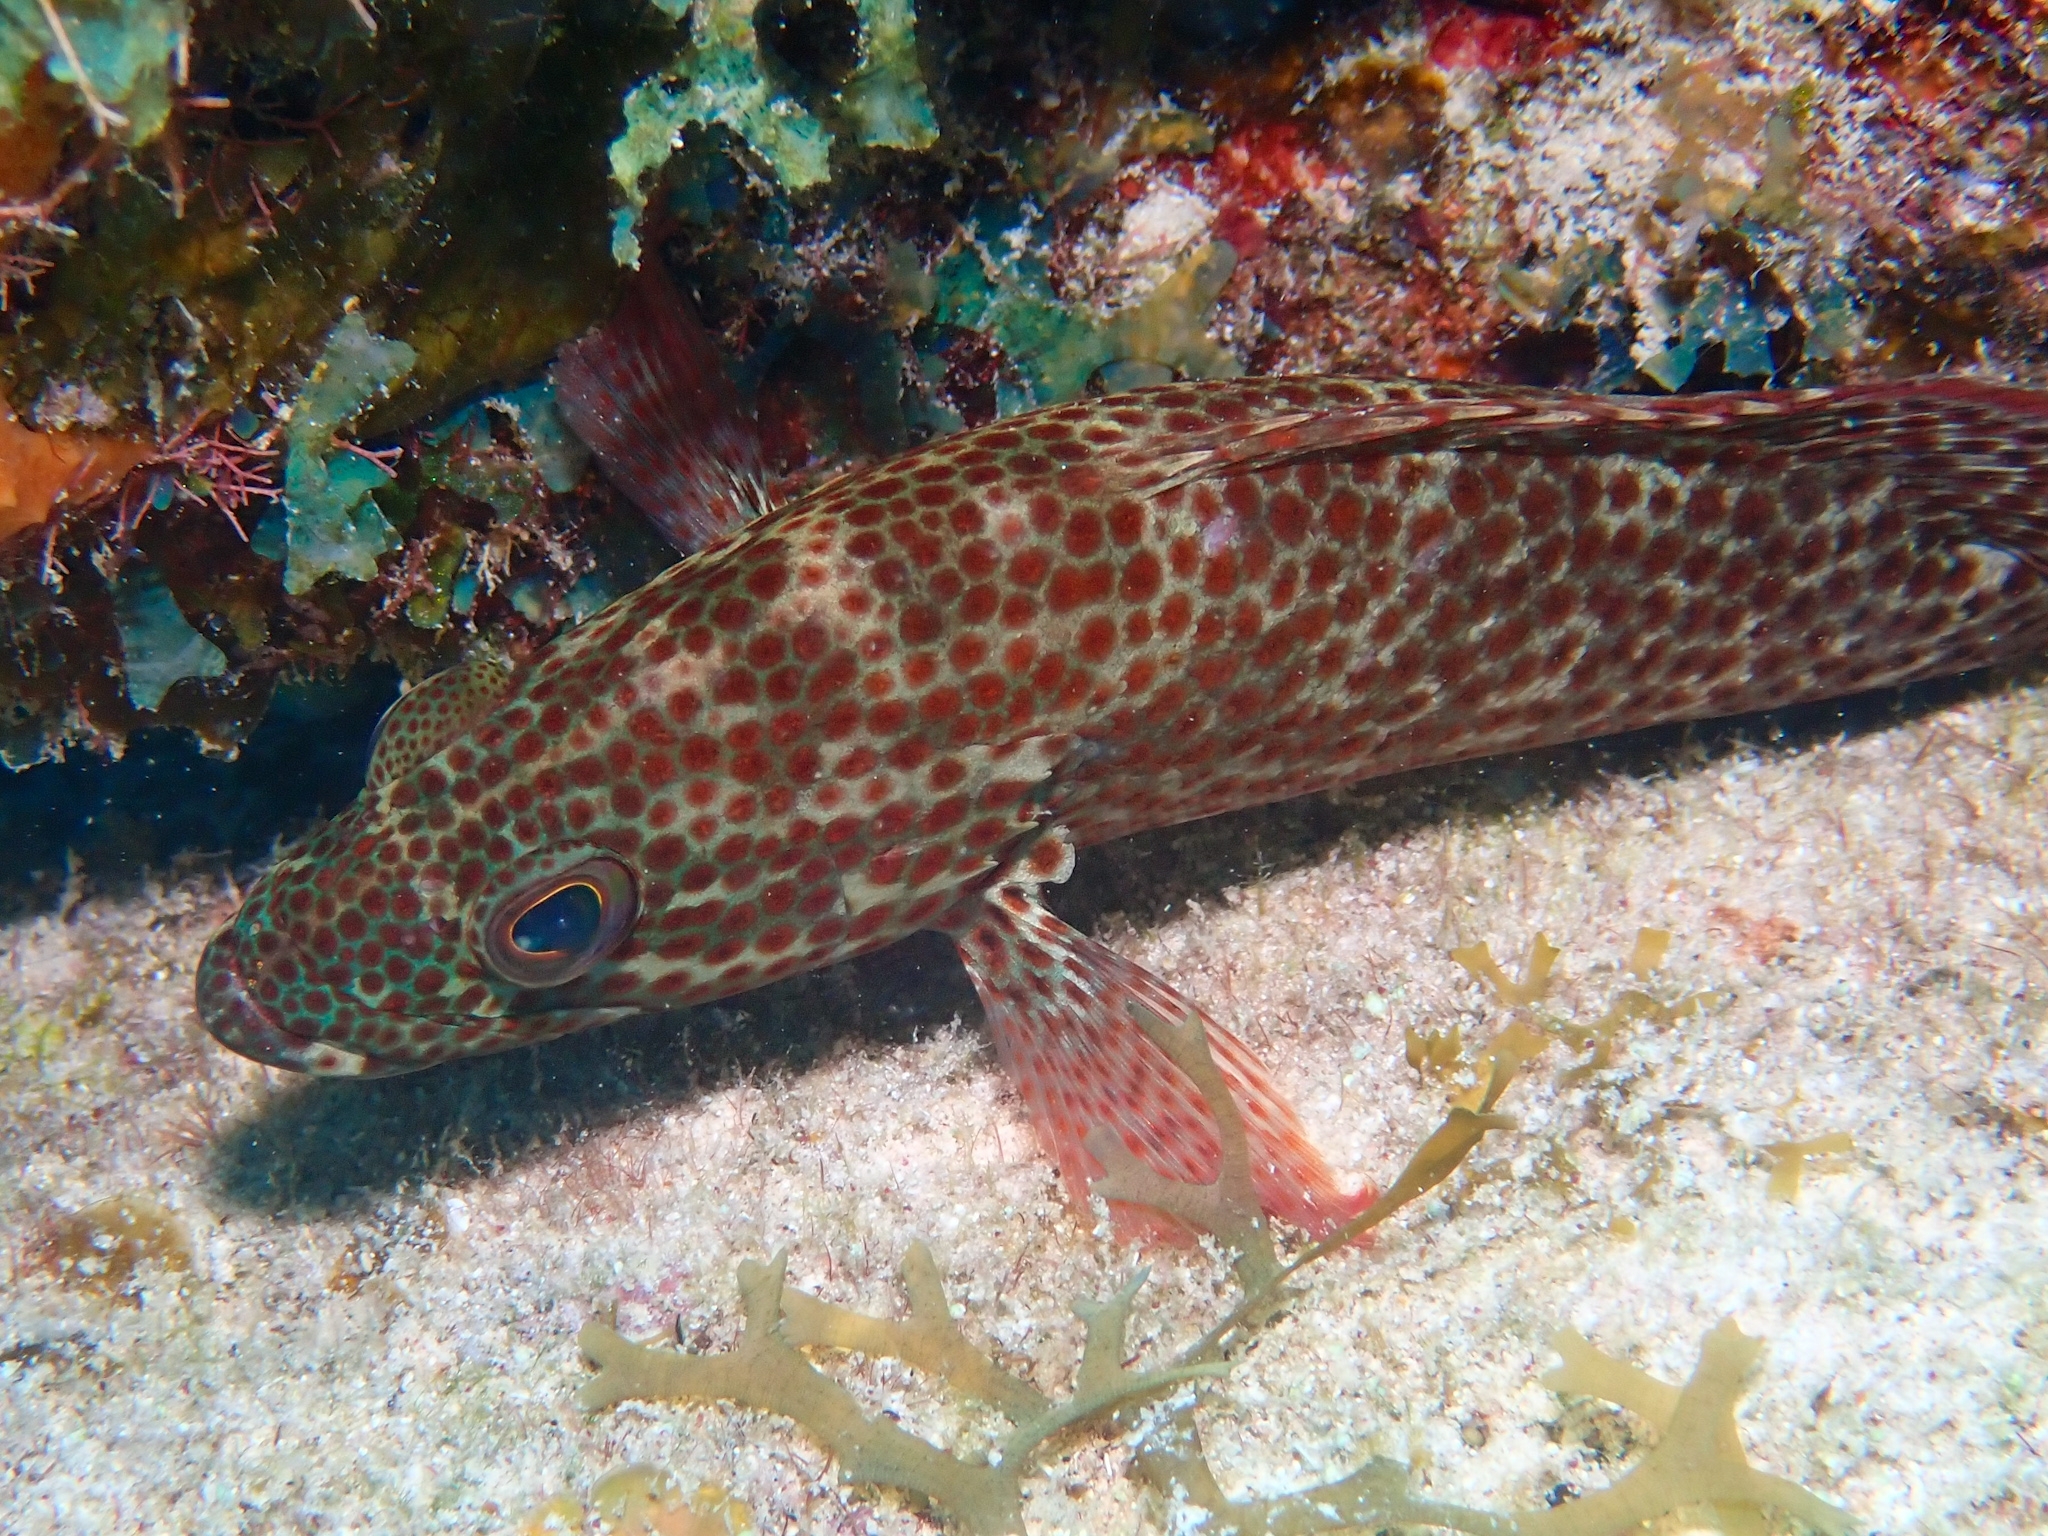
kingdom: Animalia
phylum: Chordata
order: Perciformes
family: Serranidae
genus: Cephalopholis
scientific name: Cephalopholis cruentata
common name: Graysby
